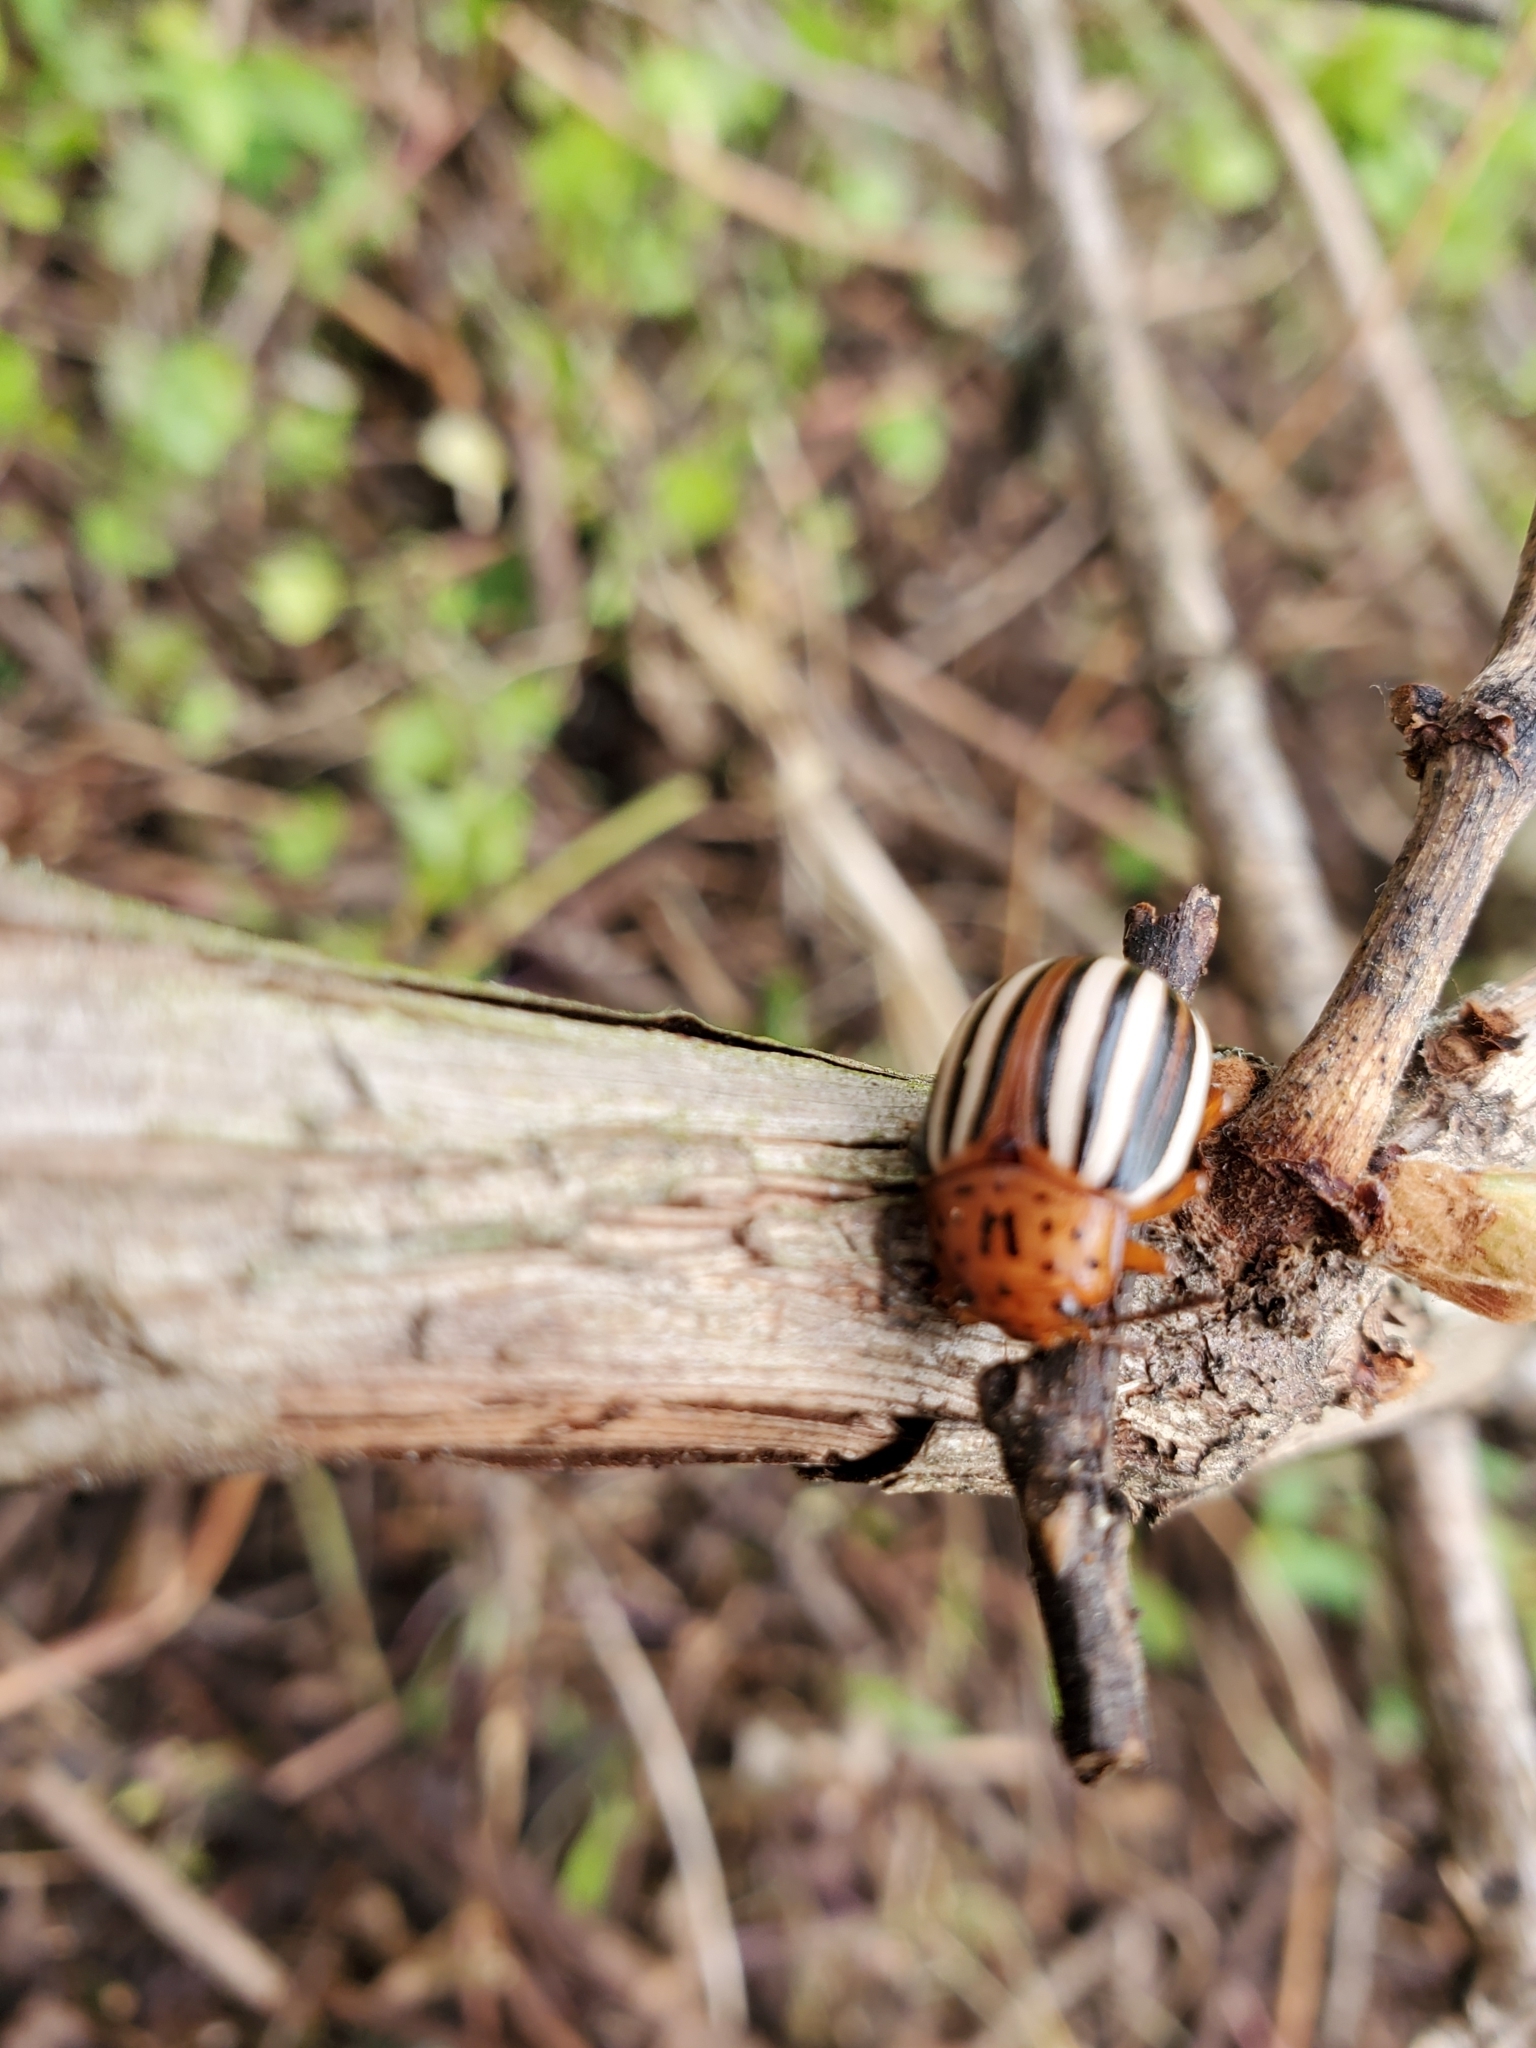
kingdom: Animalia
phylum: Arthropoda
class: Insecta
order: Coleoptera
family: Chrysomelidae
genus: Leptinotarsa
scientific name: Leptinotarsa juncta
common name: False potato beetle
